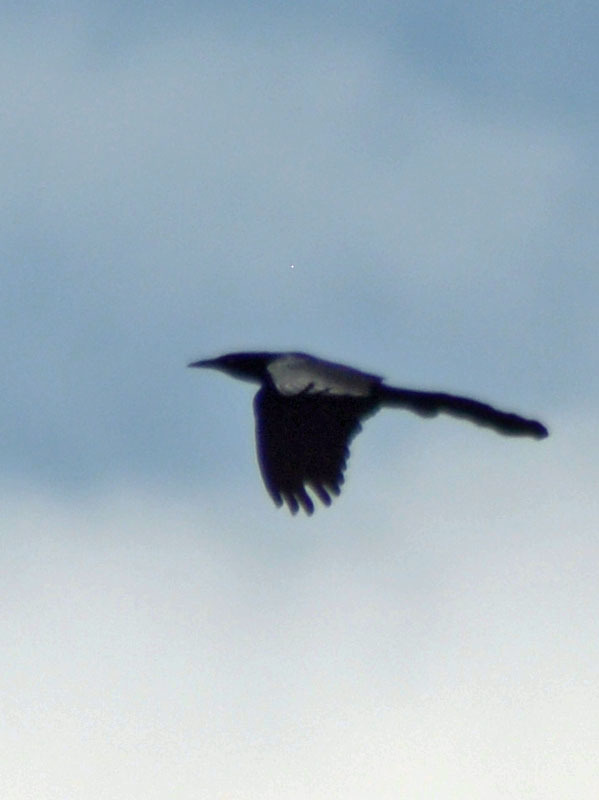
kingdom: Animalia
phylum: Chordata
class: Aves
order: Passeriformes
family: Icteridae
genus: Quiscalus
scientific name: Quiscalus mexicanus
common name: Great-tailed grackle
